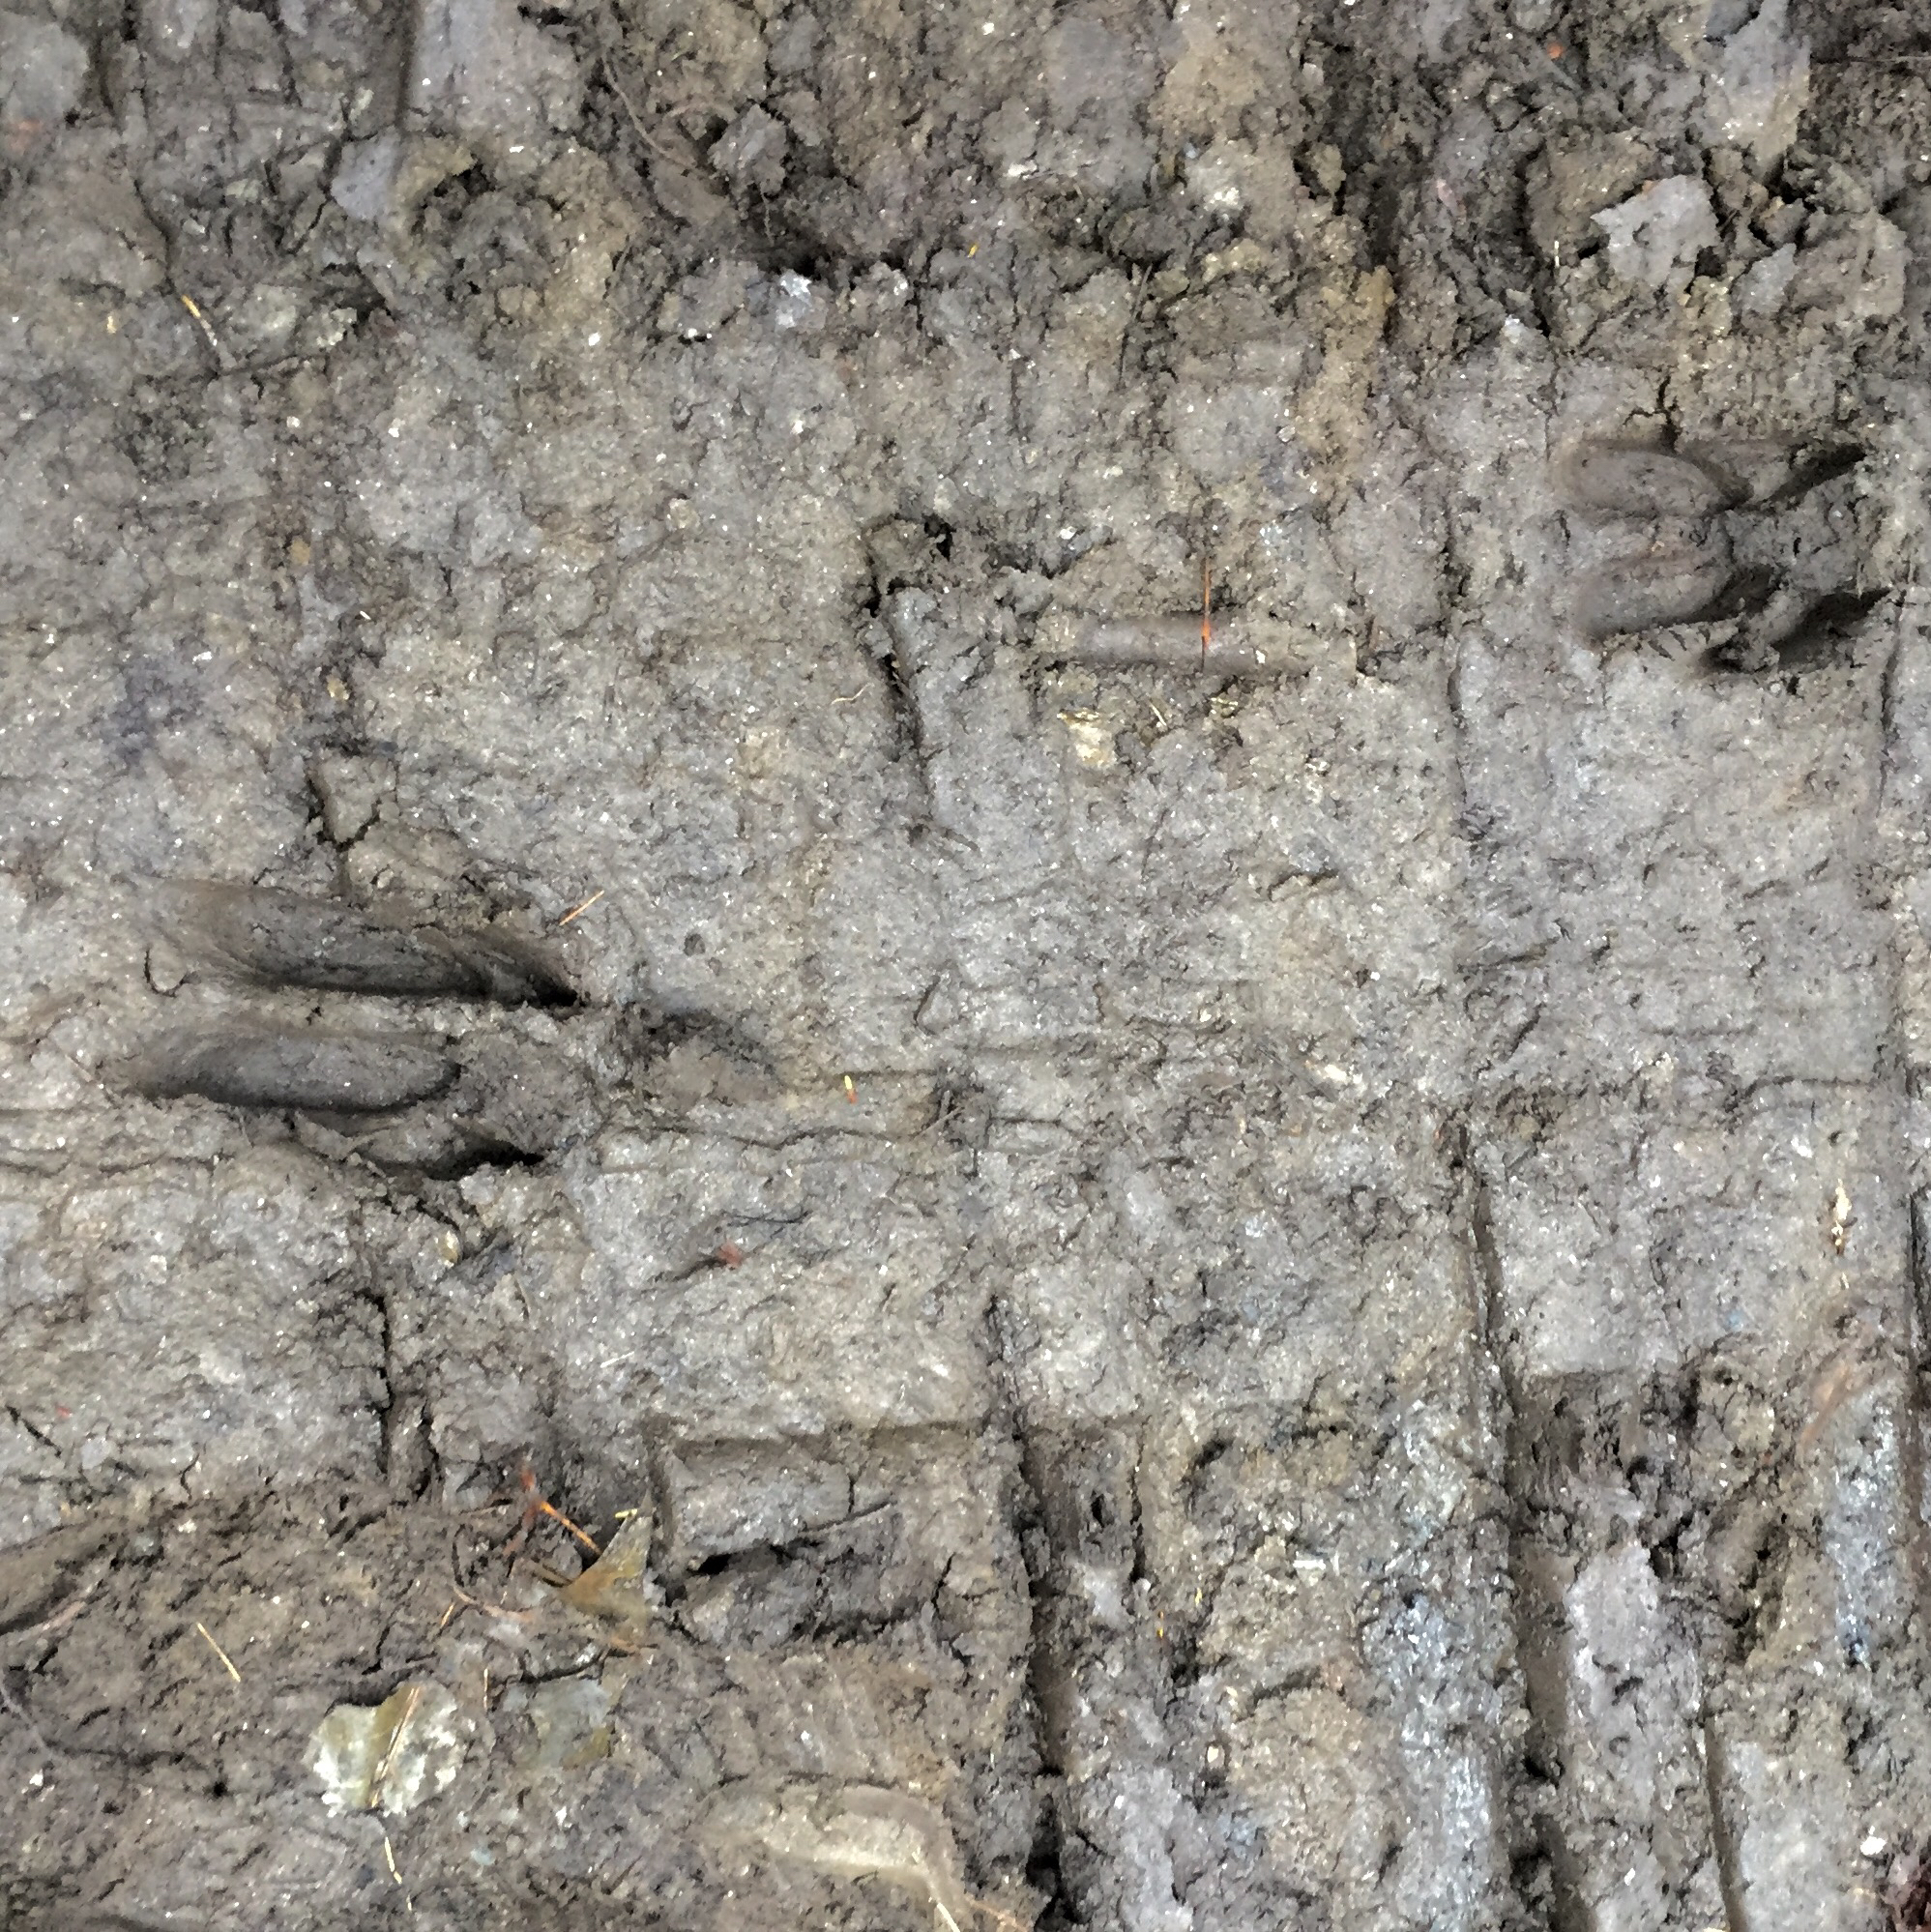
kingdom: Animalia
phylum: Chordata
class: Mammalia
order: Artiodactyla
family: Cervidae
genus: Odocoileus
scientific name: Odocoileus virginianus
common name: White-tailed deer
